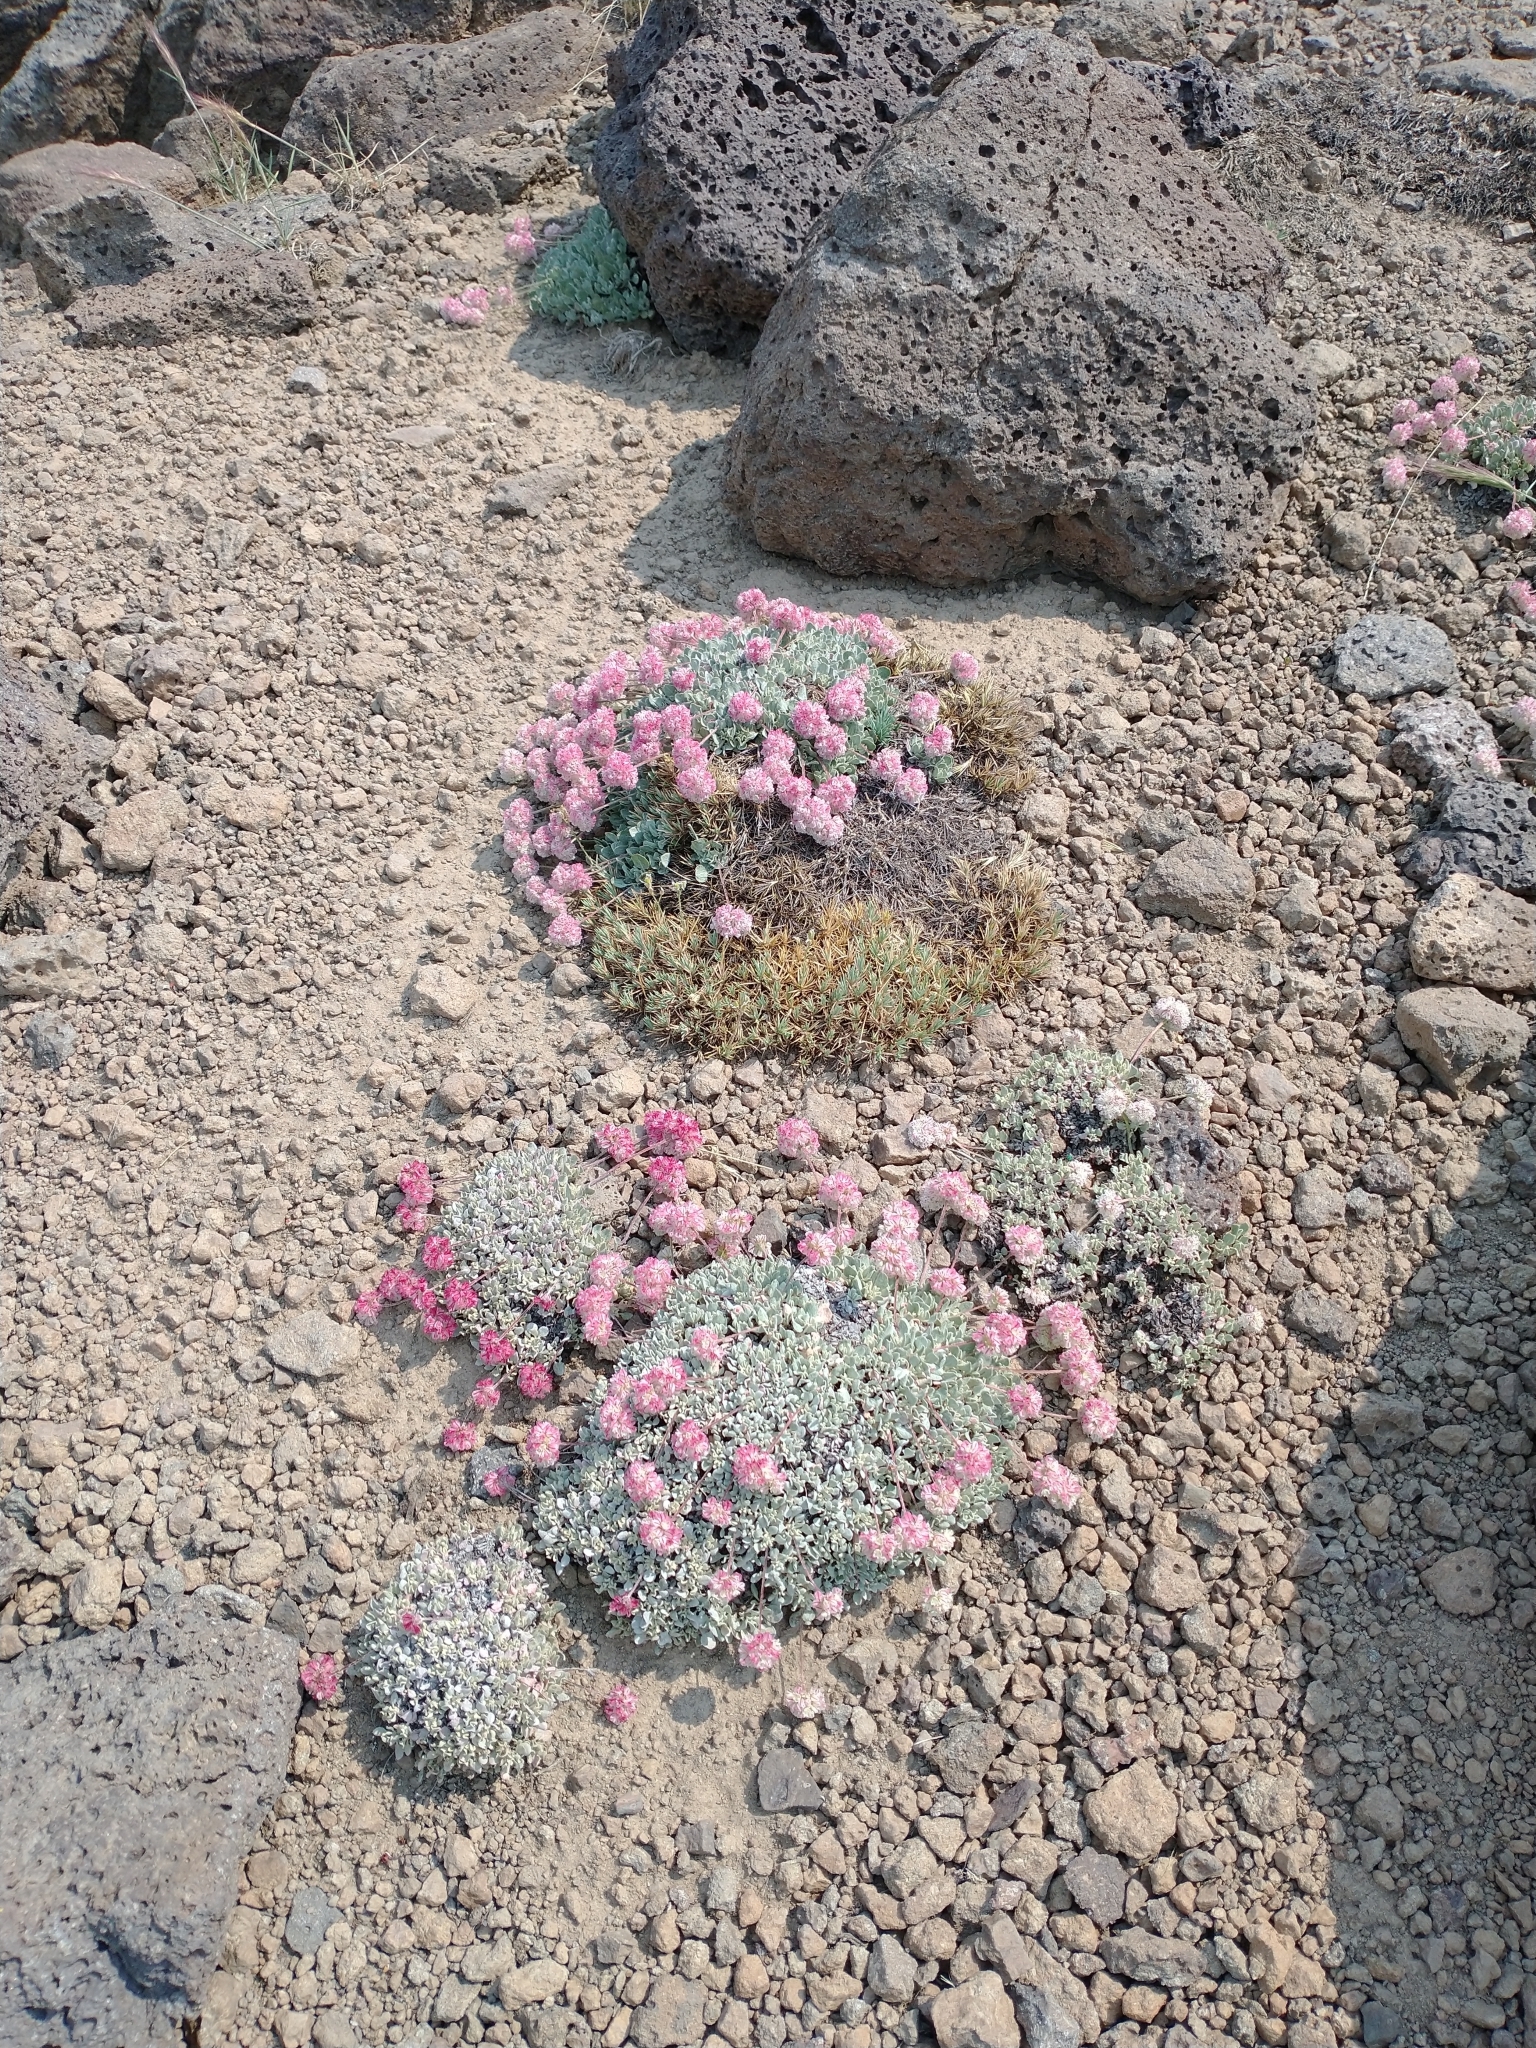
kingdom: Plantae
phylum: Tracheophyta
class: Magnoliopsida
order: Caryophyllales
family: Polygonaceae
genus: Eriogonum
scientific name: Eriogonum ovalifolium
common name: Cushion buckwheat
